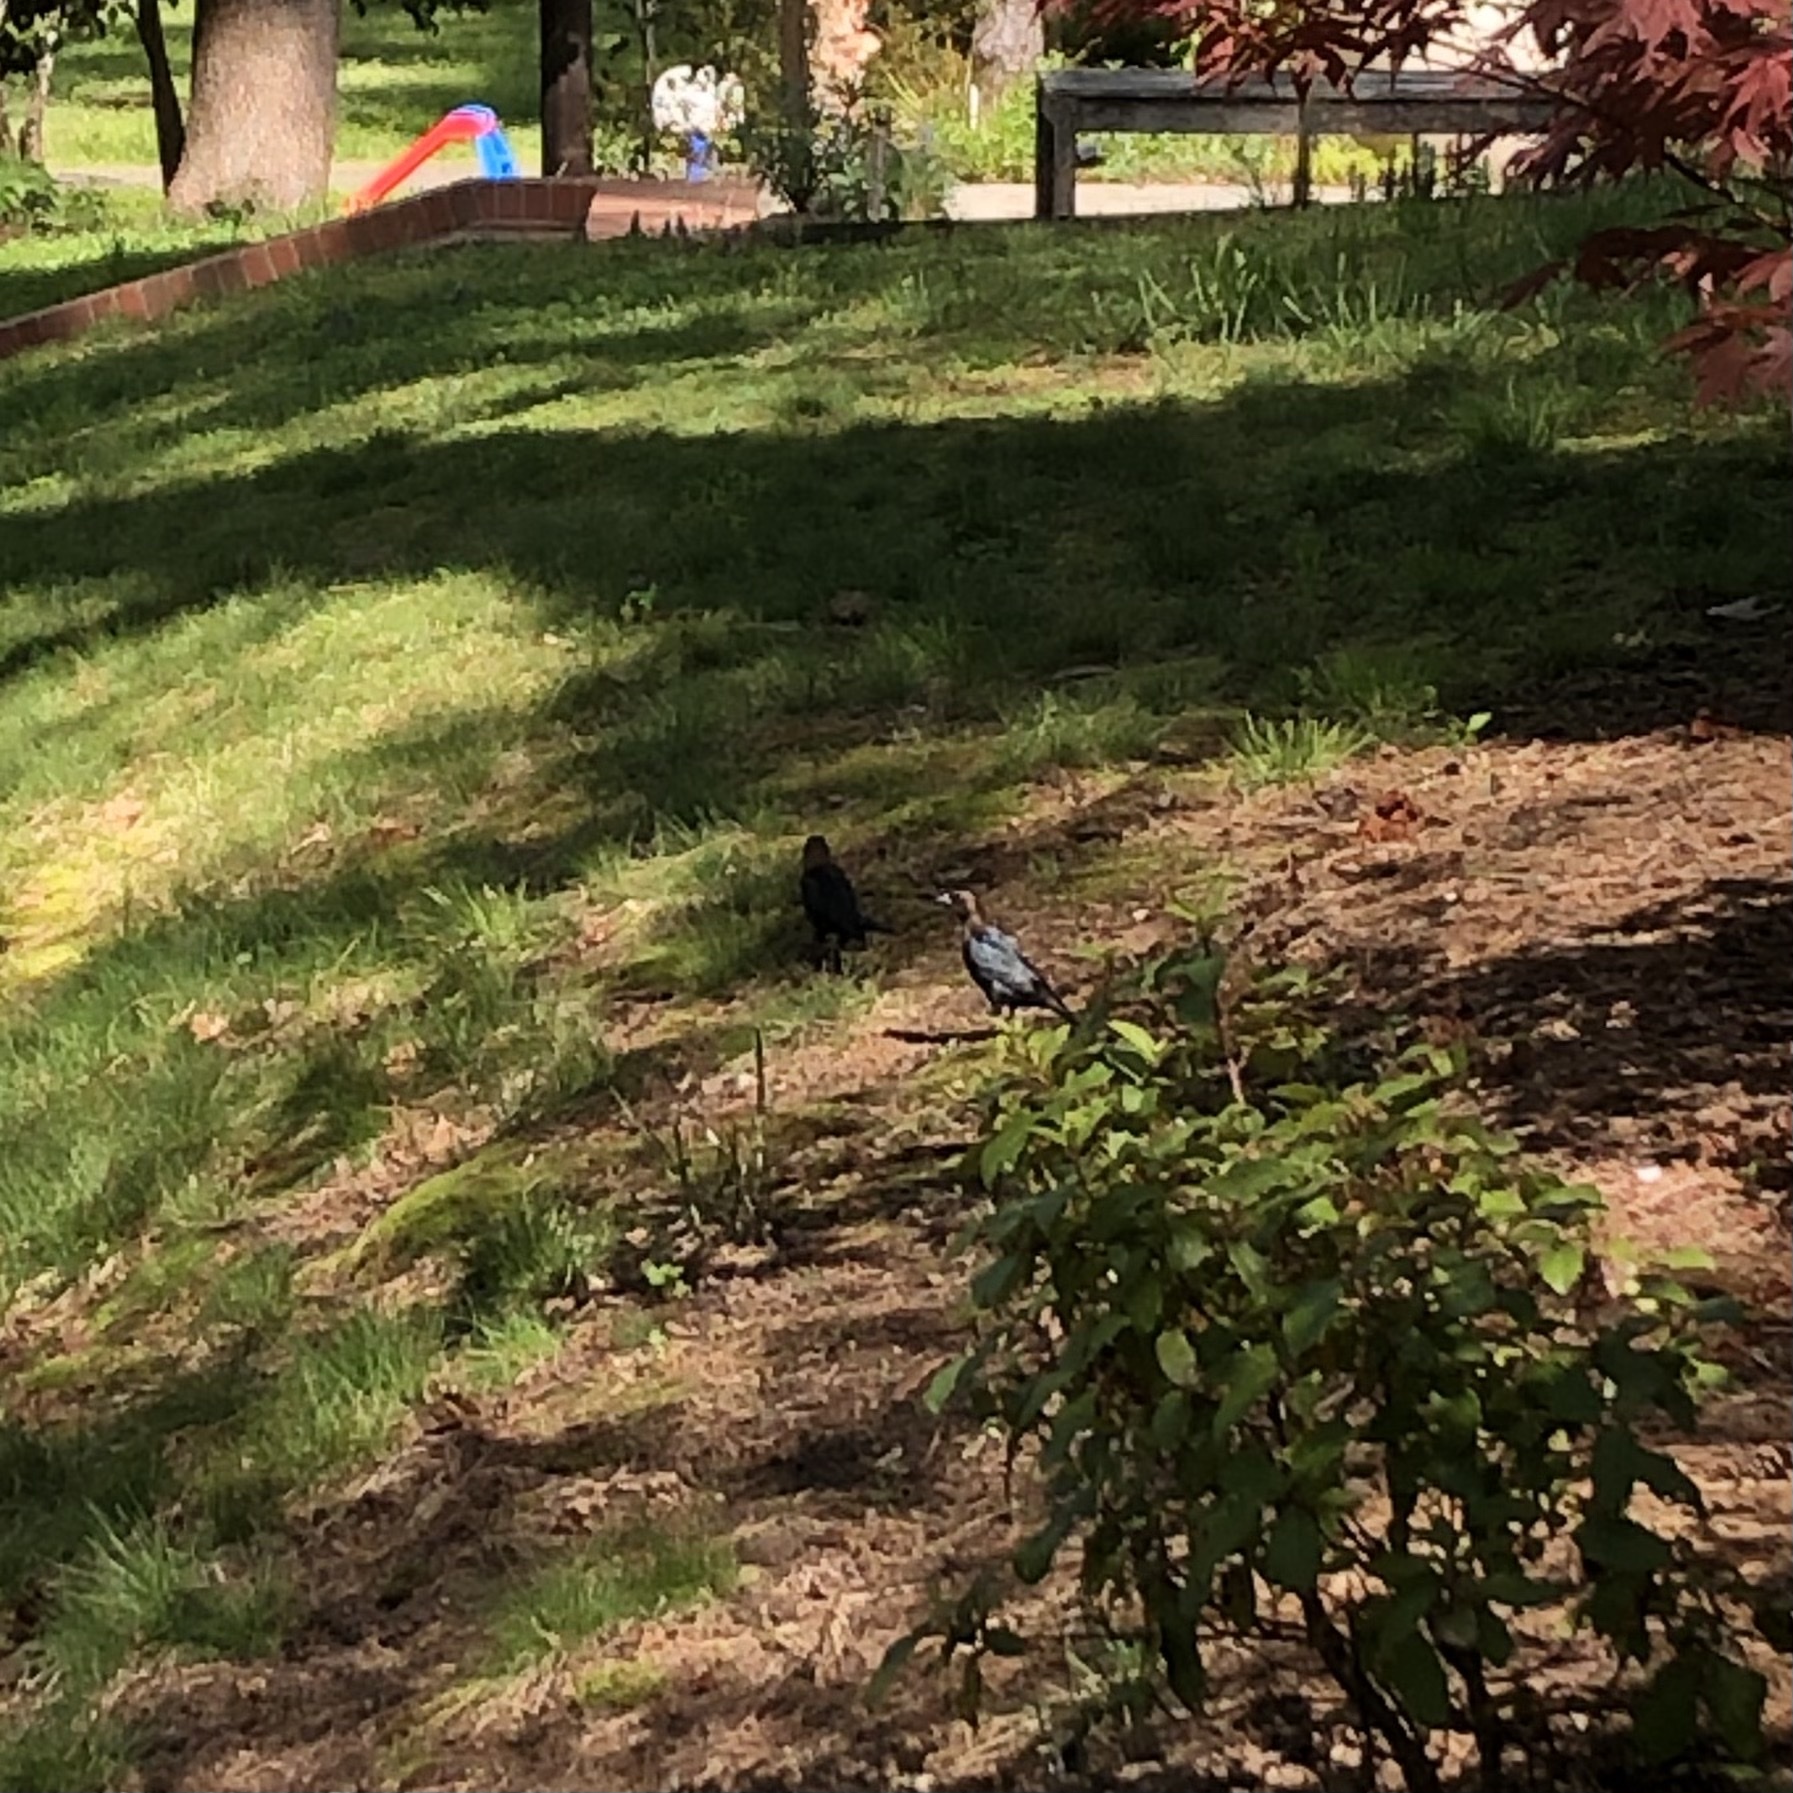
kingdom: Animalia
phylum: Chordata
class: Aves
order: Passeriformes
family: Icteridae
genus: Molothrus
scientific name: Molothrus ater
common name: Brown-headed cowbird
